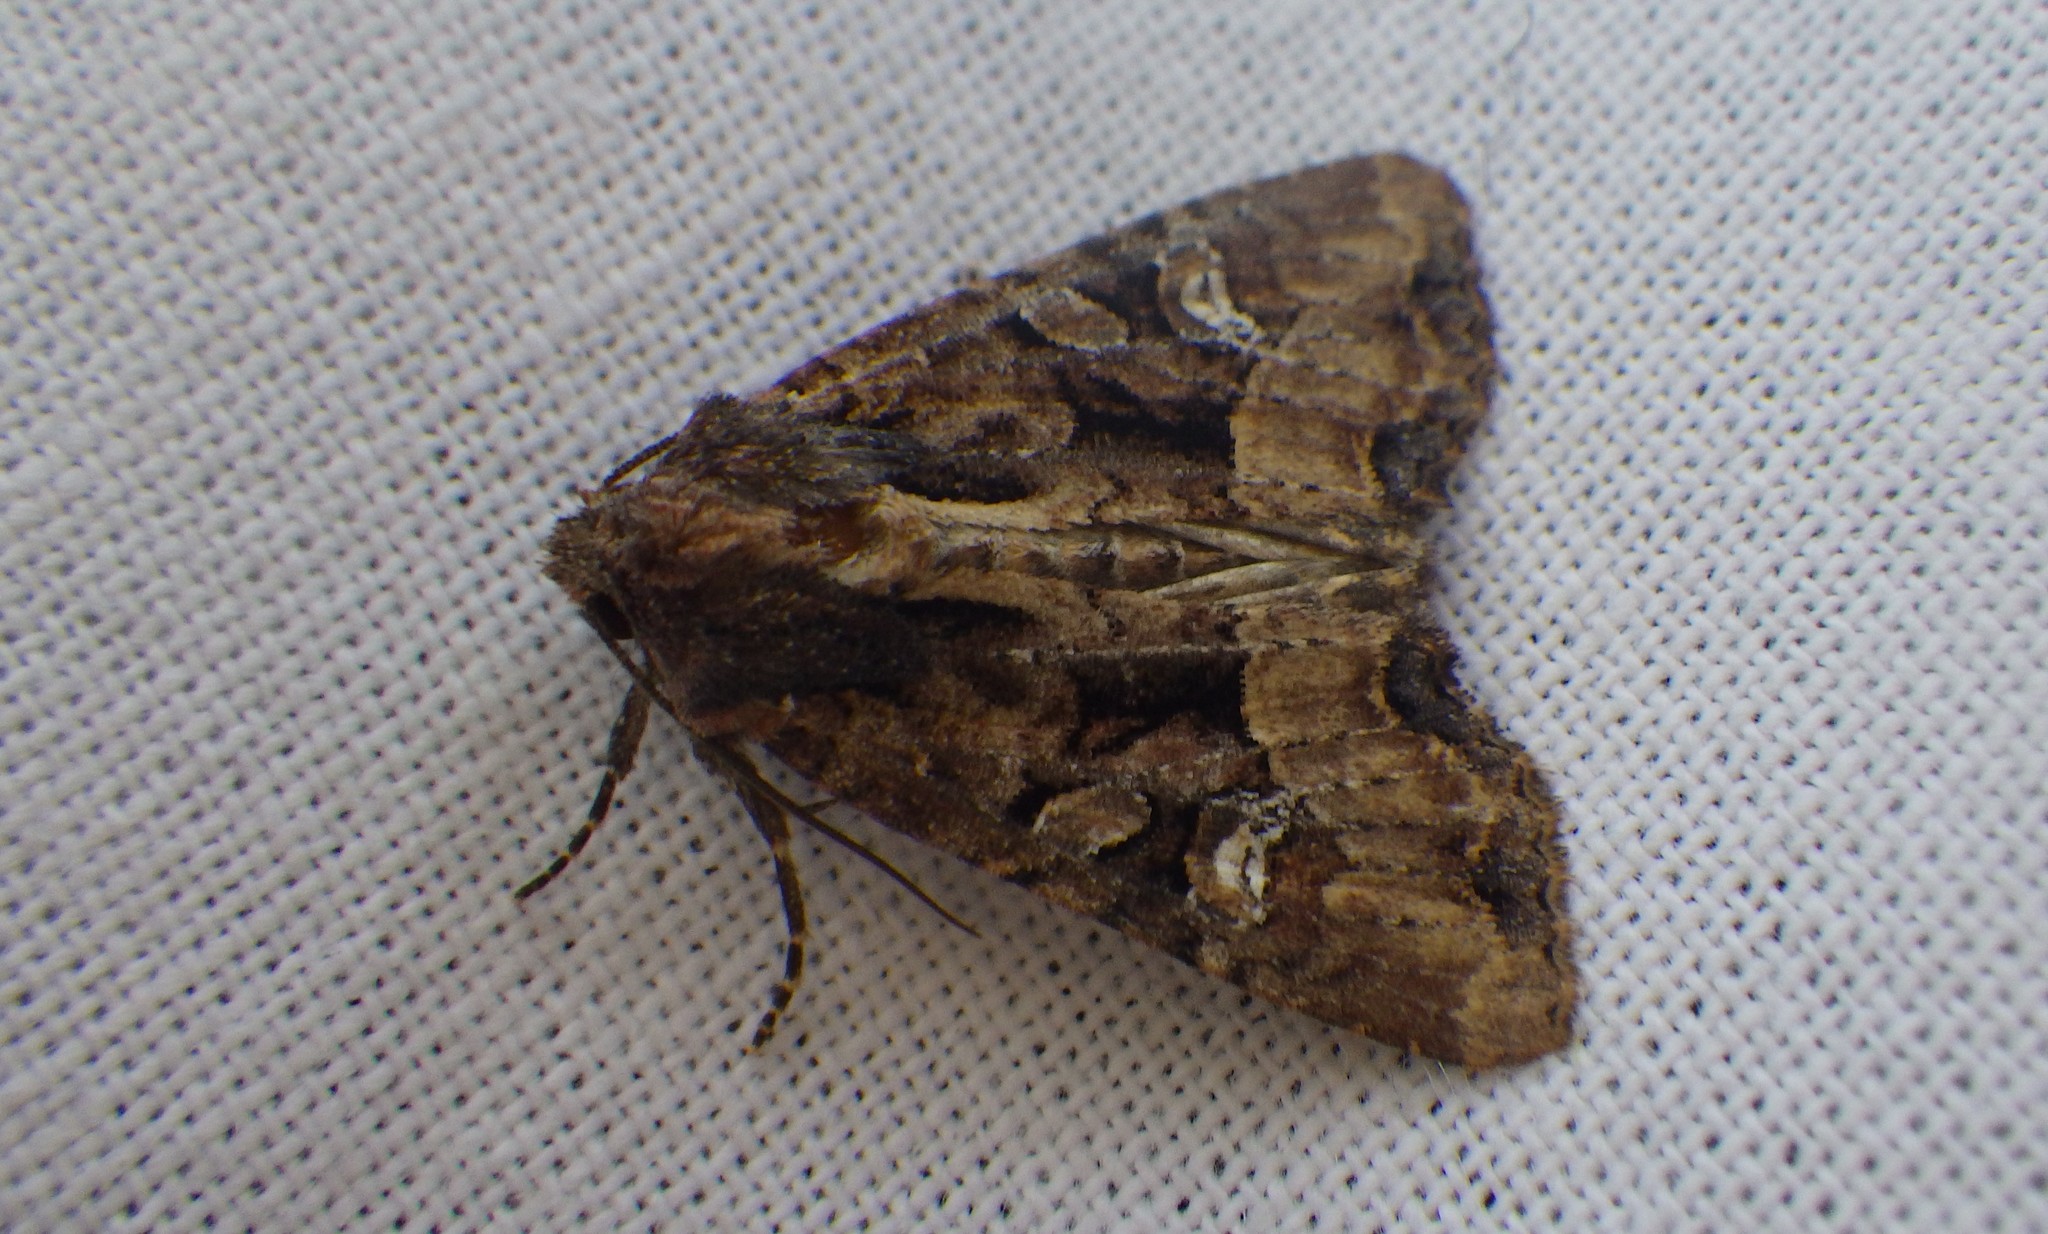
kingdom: Animalia
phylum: Arthropoda
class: Insecta
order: Lepidoptera
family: Noctuidae
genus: Mesapamea
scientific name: Mesapamea
